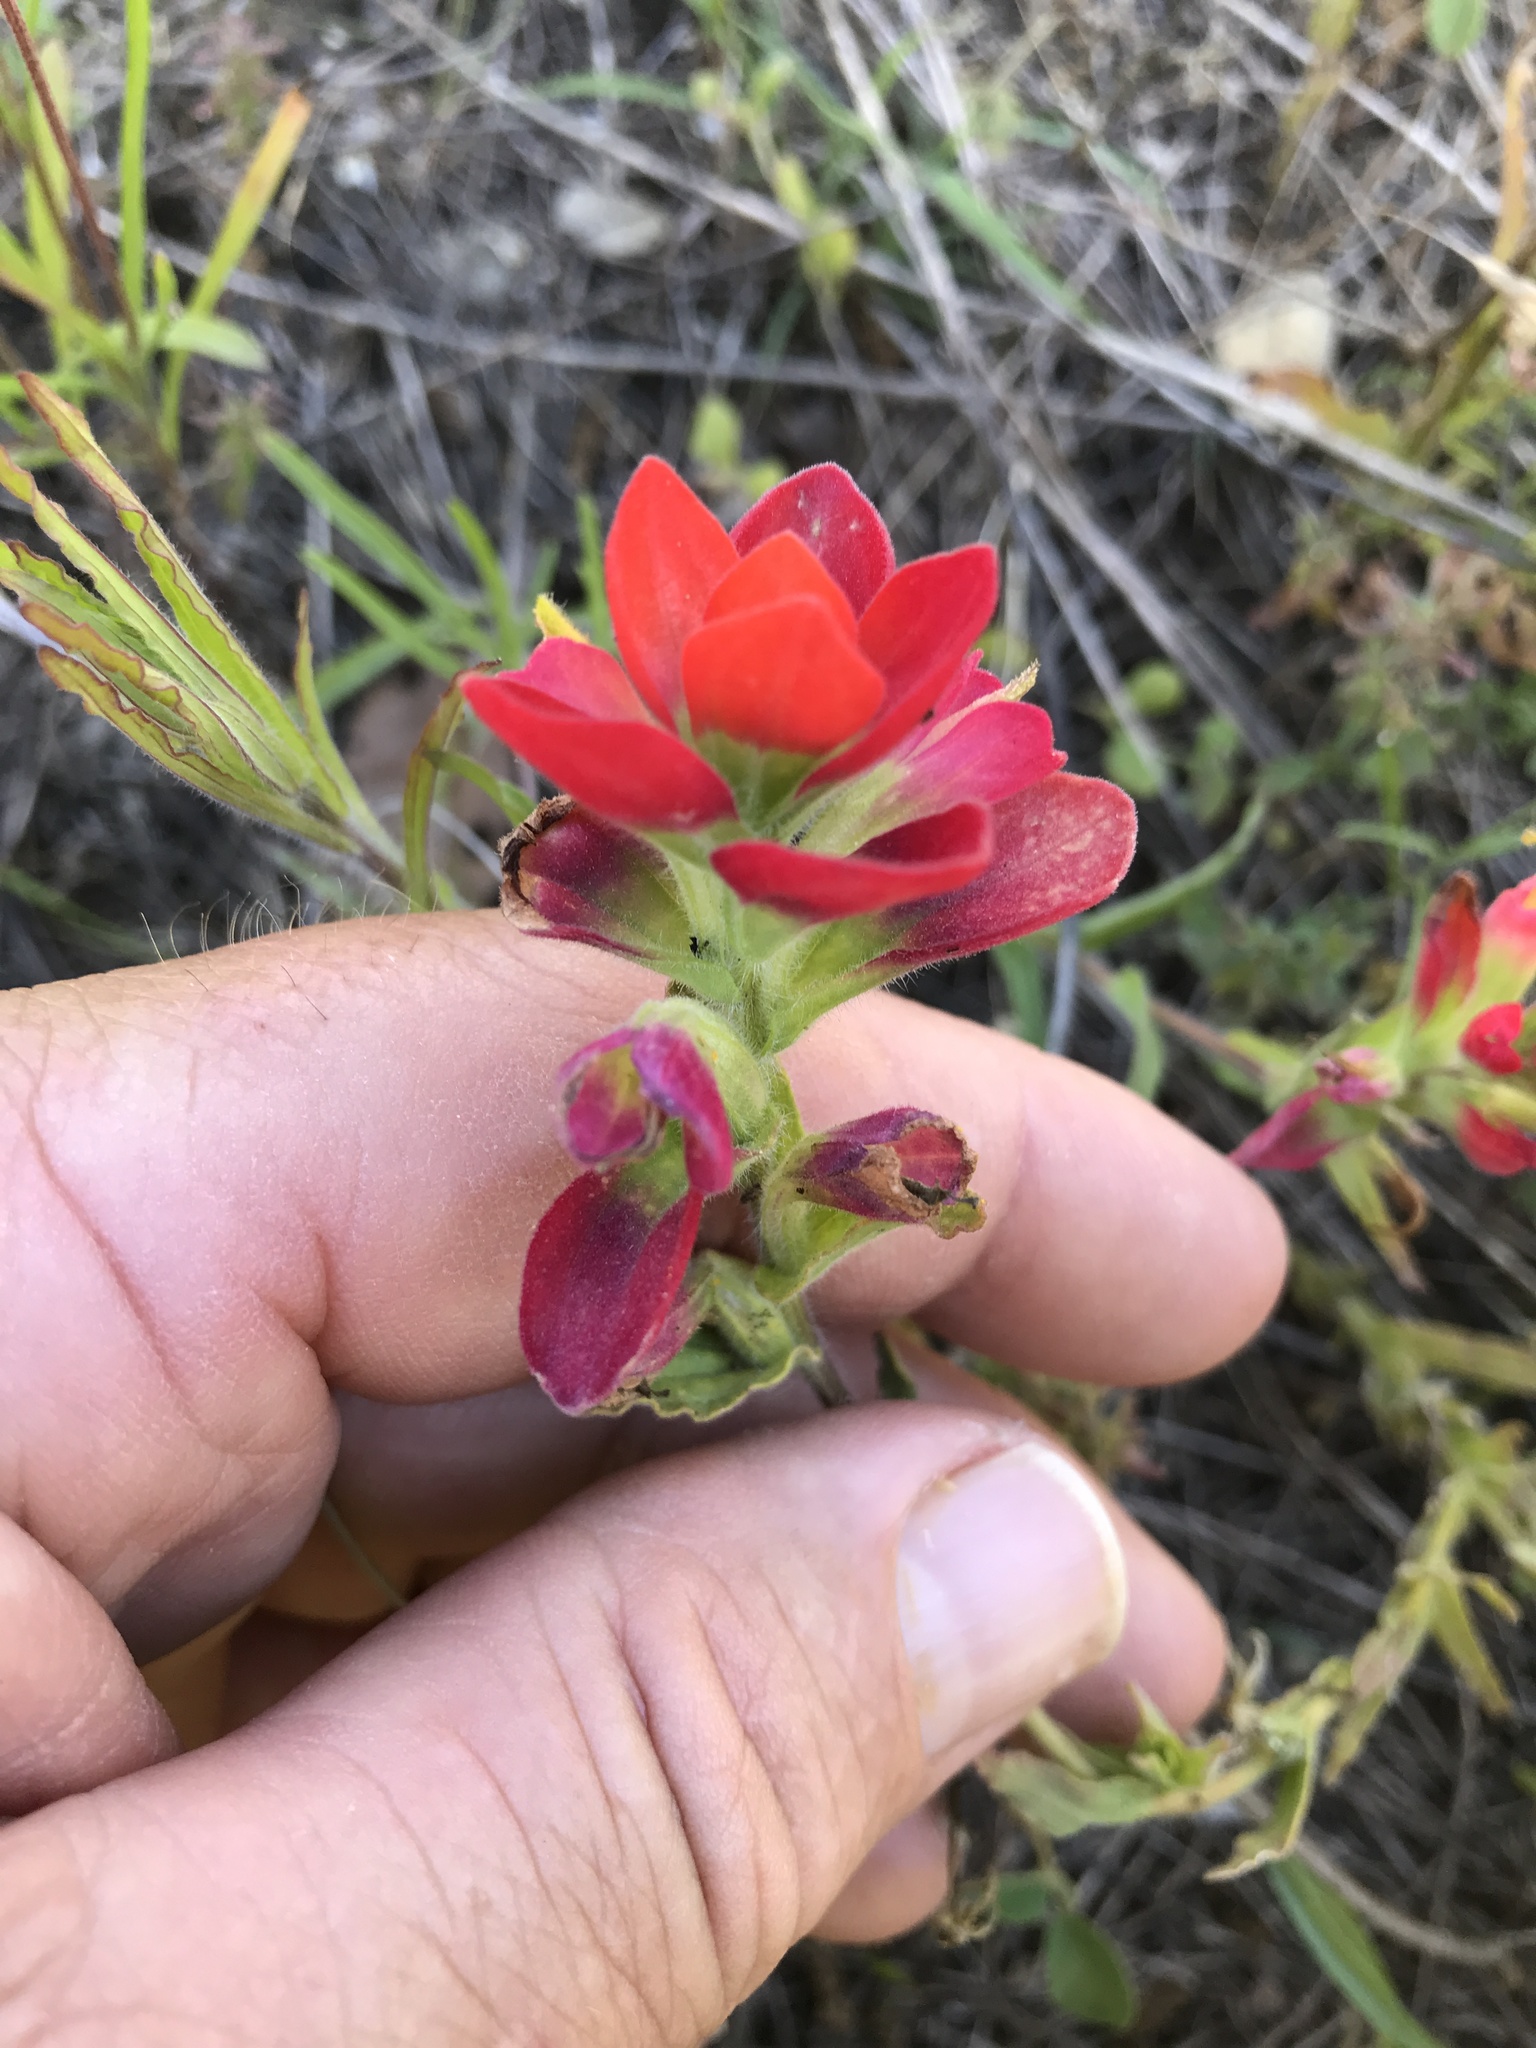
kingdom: Plantae
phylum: Tracheophyta
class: Magnoliopsida
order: Lamiales
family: Orobanchaceae
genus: Castilleja
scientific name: Castilleja indivisa
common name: Texas paintbrush
